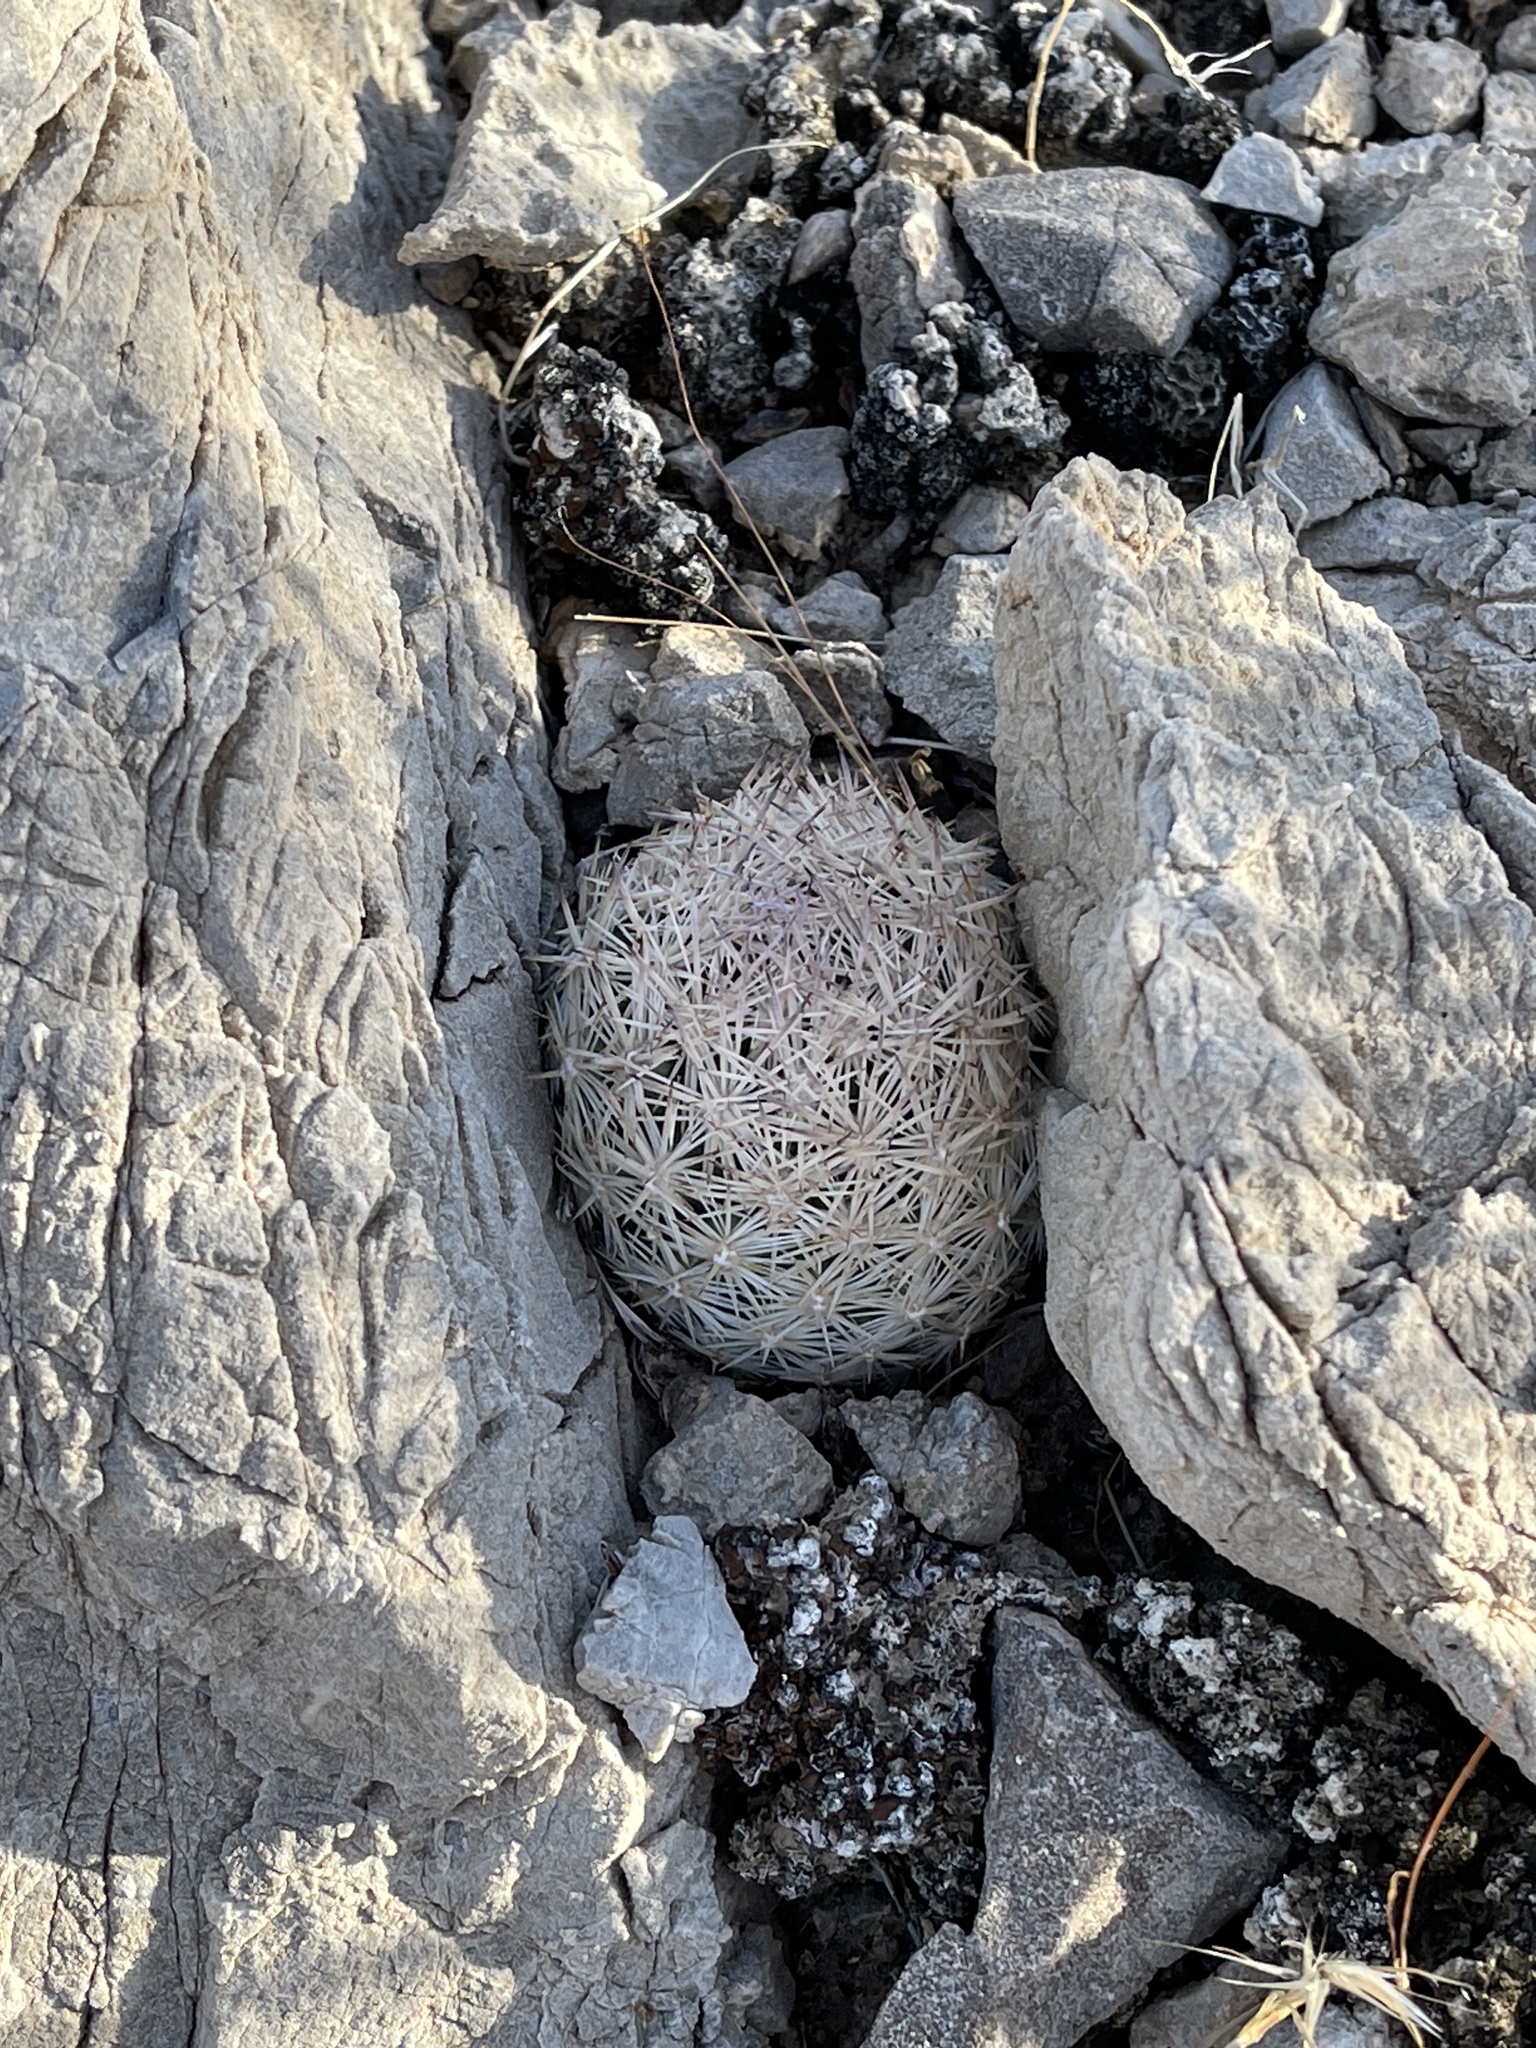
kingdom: Plantae
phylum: Tracheophyta
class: Magnoliopsida
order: Caryophyllales
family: Cactaceae
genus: Pelecyphora
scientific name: Pelecyphora dasyacantha
